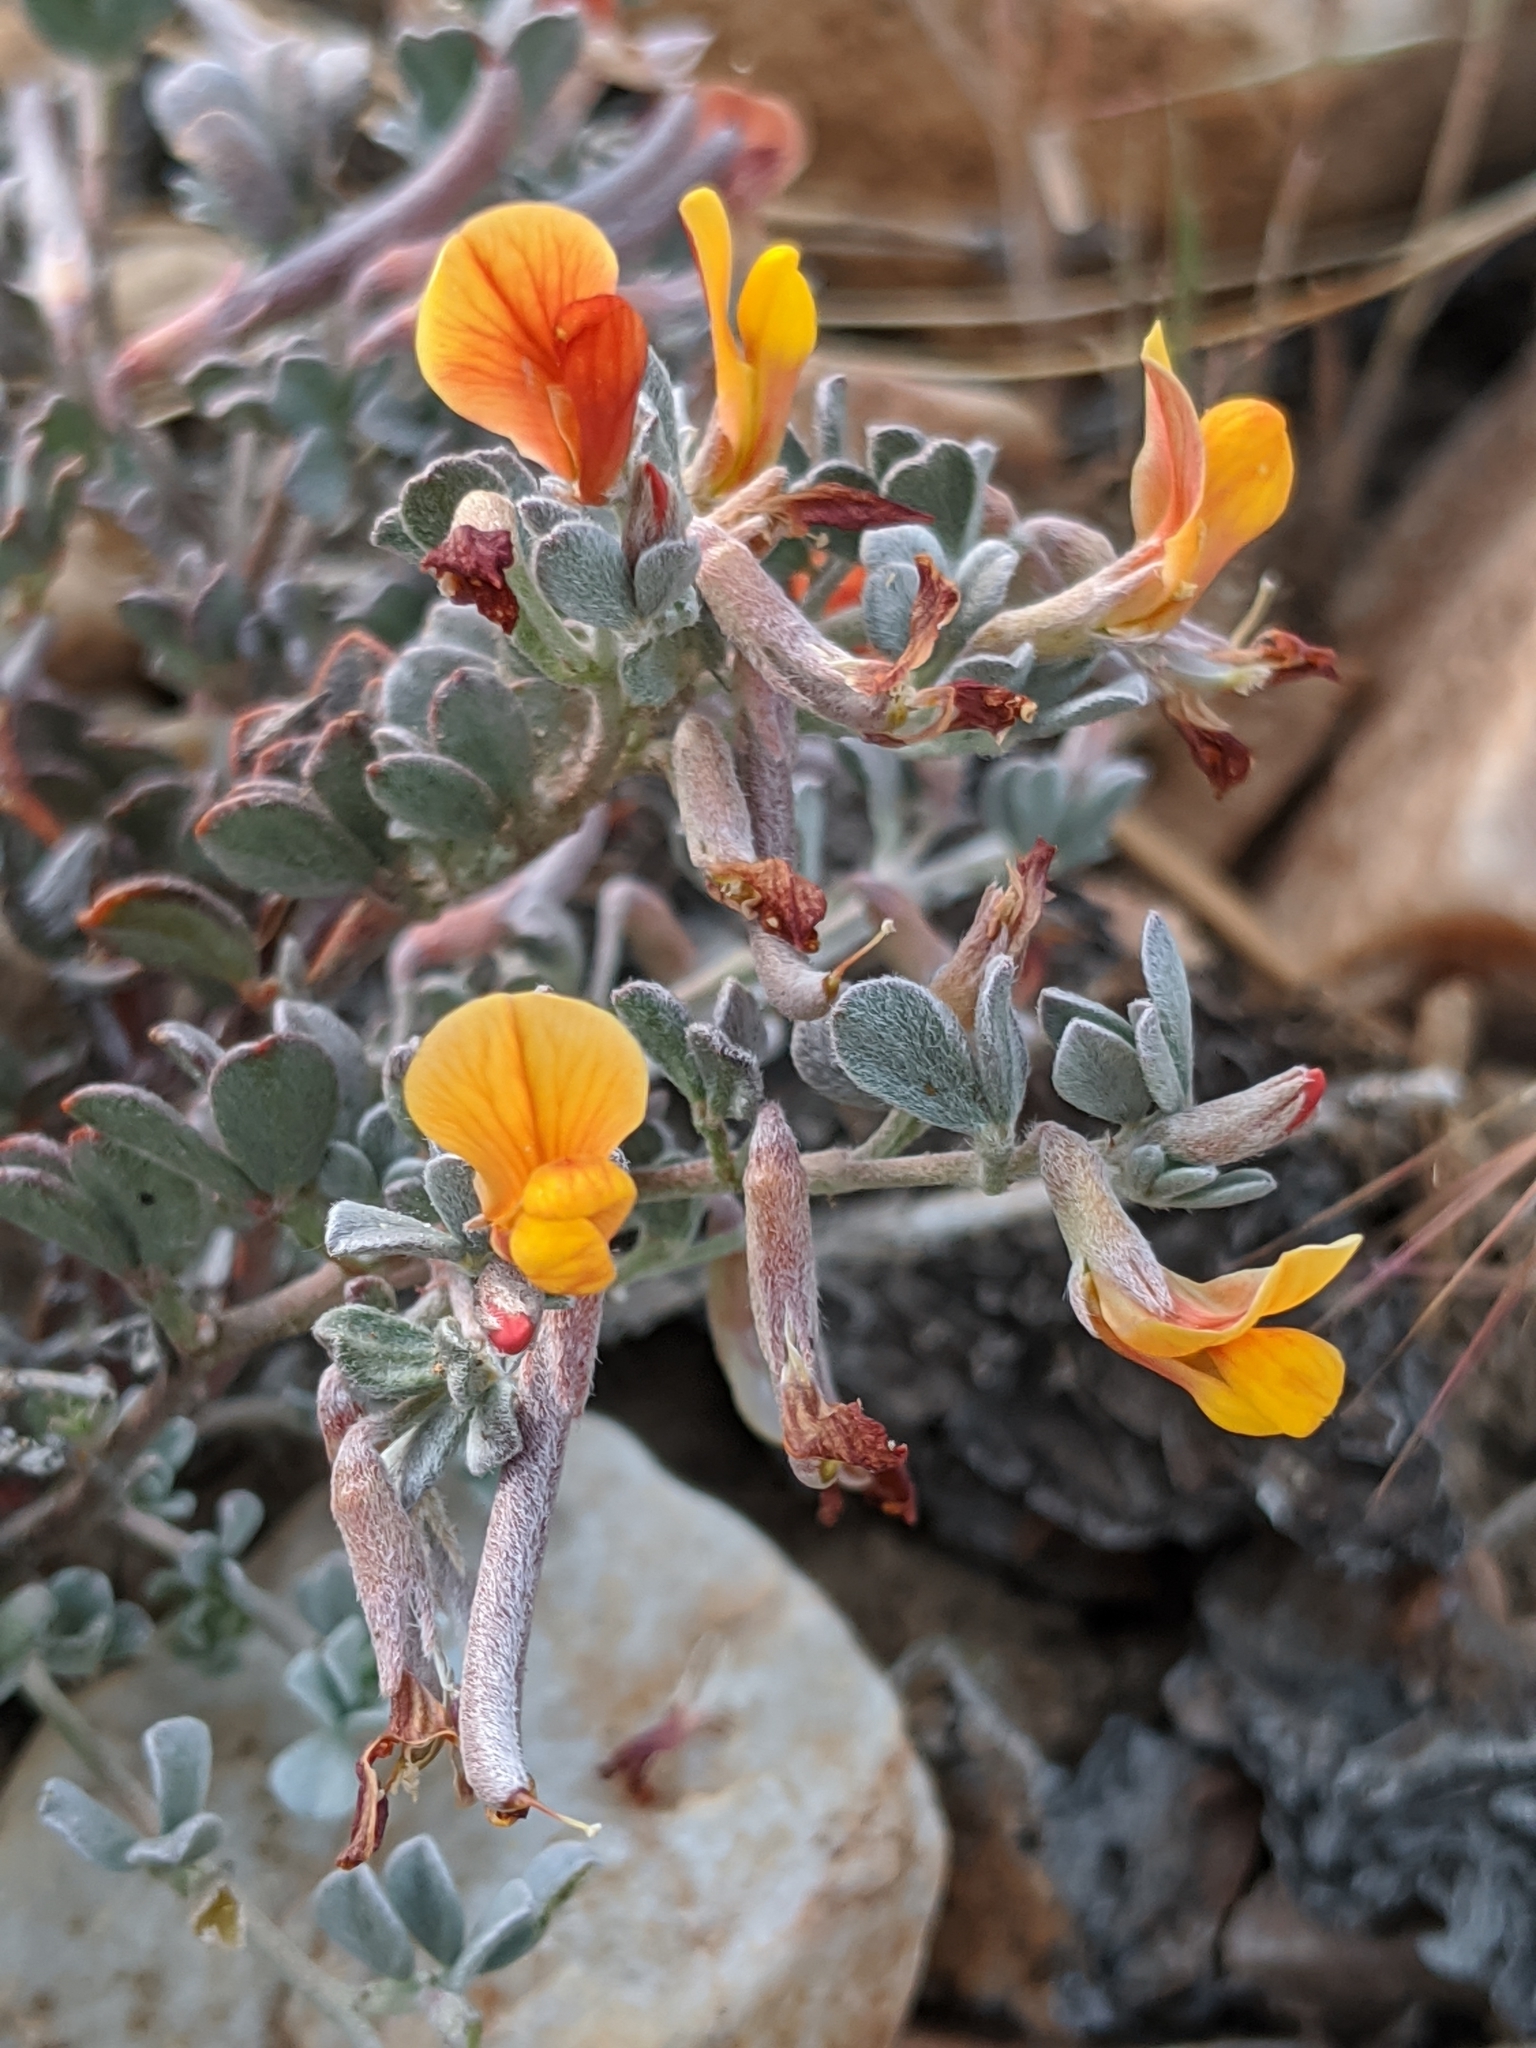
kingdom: Plantae
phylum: Tracheophyta
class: Magnoliopsida
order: Fabales
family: Fabaceae
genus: Acmispon
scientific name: Acmispon argyraeus
